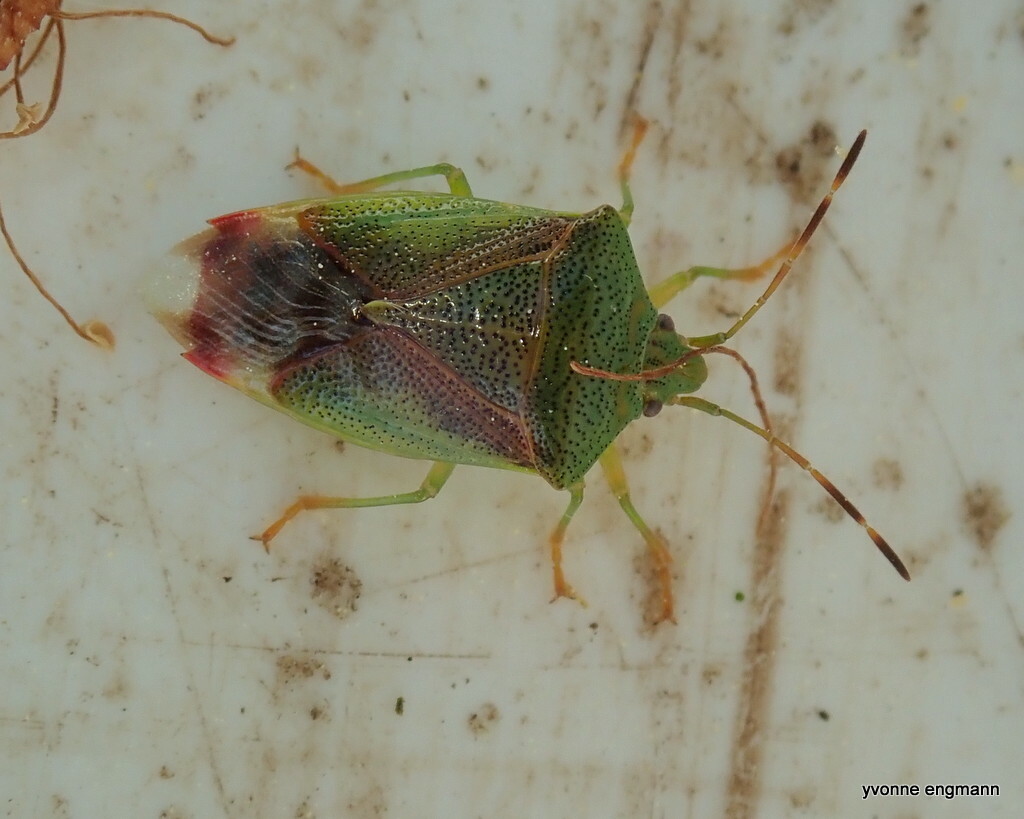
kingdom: Animalia
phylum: Arthropoda
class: Insecta
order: Hemiptera
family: Acanthosomatidae
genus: Elasmostethus
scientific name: Elasmostethus minor
